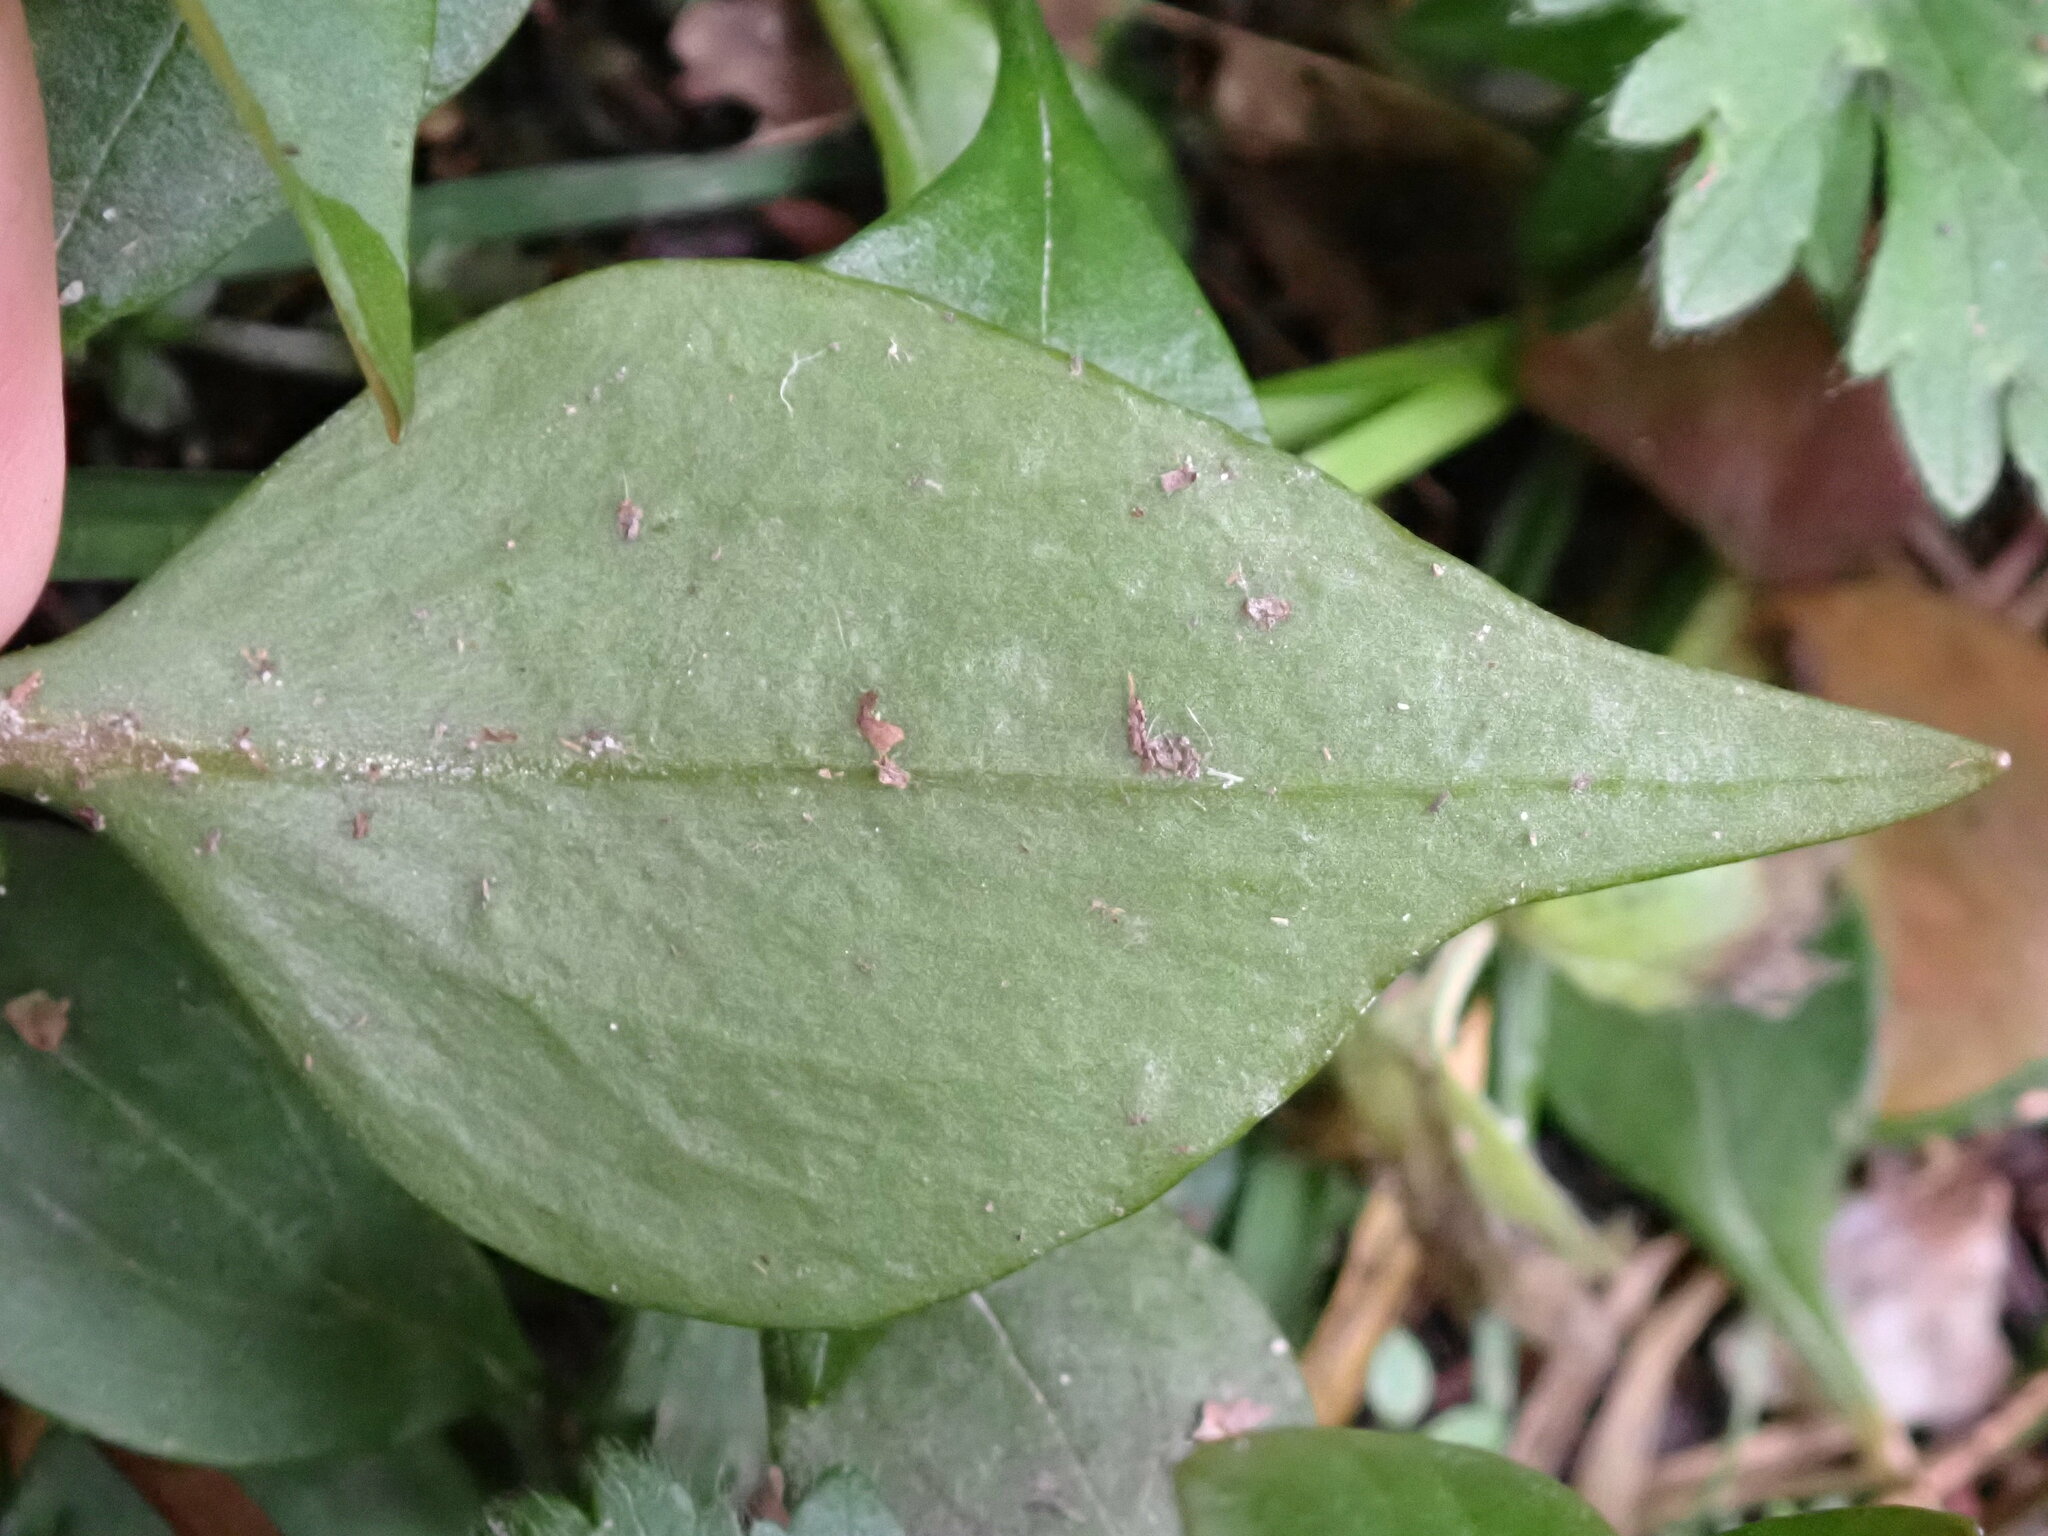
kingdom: Plantae
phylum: Tracheophyta
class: Magnoliopsida
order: Caryophyllales
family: Montiaceae
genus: Claytonia
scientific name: Claytonia sibirica
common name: Pink purslane
